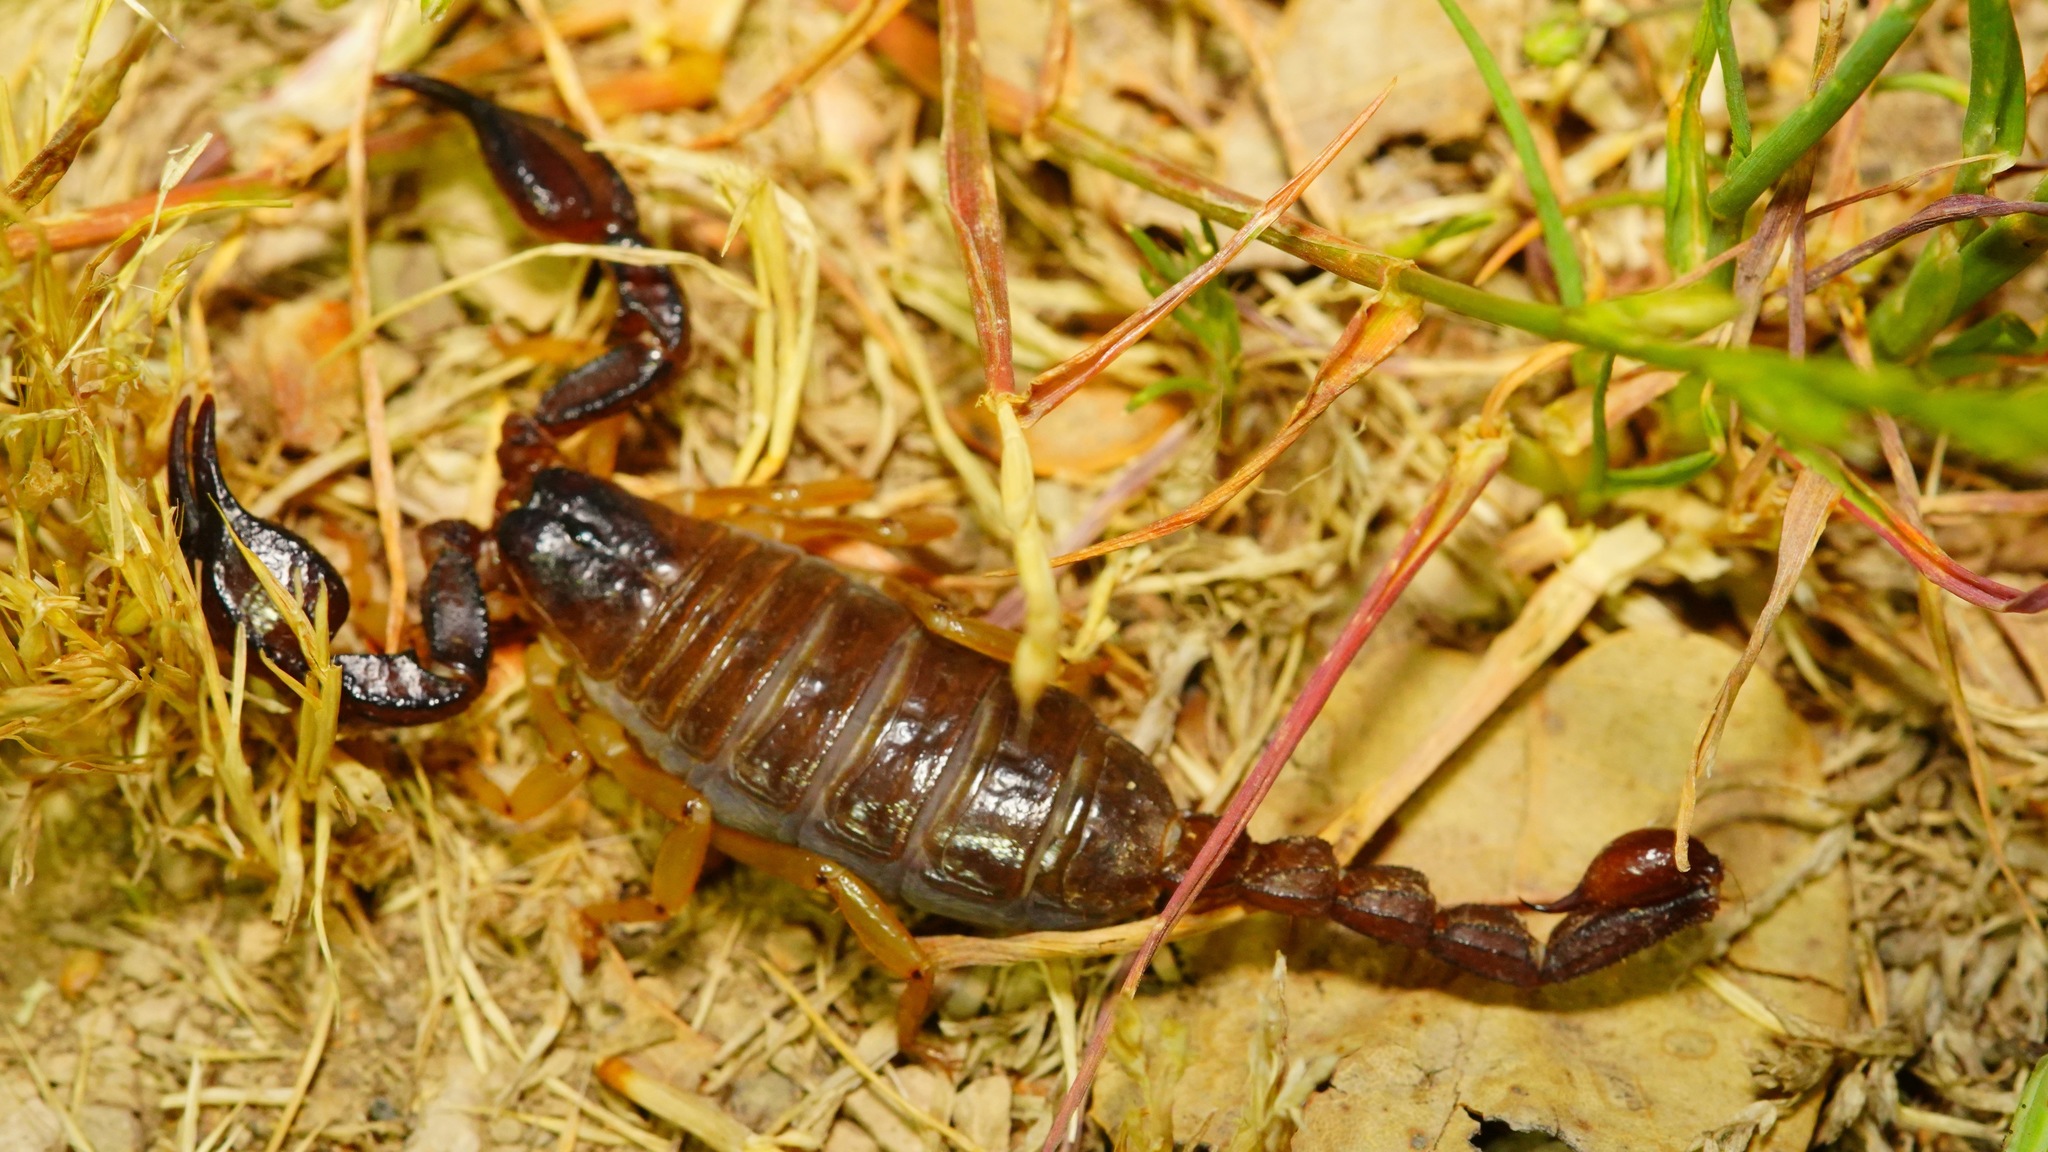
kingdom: Animalia
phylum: Arthropoda
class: Arachnida
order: Scorpiones
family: Chactidae
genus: Uroctonus
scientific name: Uroctonus mordax
